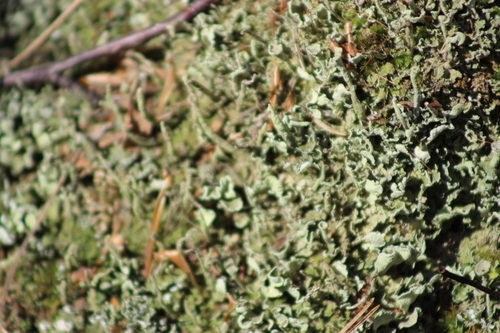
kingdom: Fungi
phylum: Ascomycota
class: Lecanoromycetes
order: Lecanorales
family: Cladoniaceae
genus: Cladonia
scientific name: Cladonia
